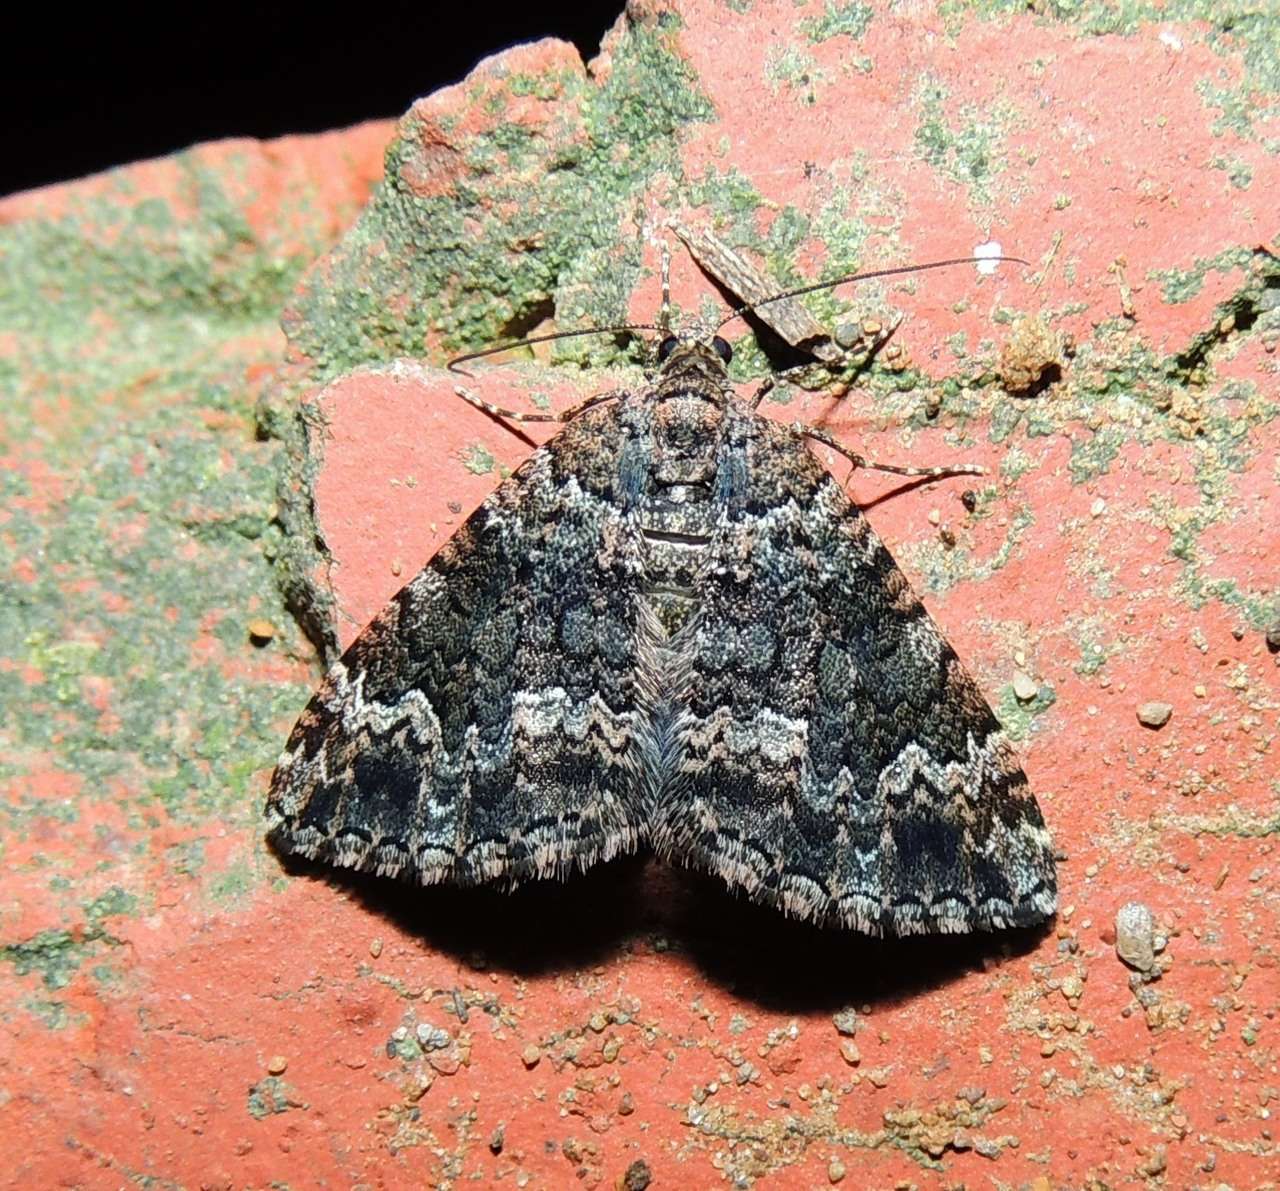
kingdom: Animalia
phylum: Arthropoda
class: Insecta
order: Lepidoptera
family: Geometridae
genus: Chrysolarentia
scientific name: Chrysolarentia imperviata
